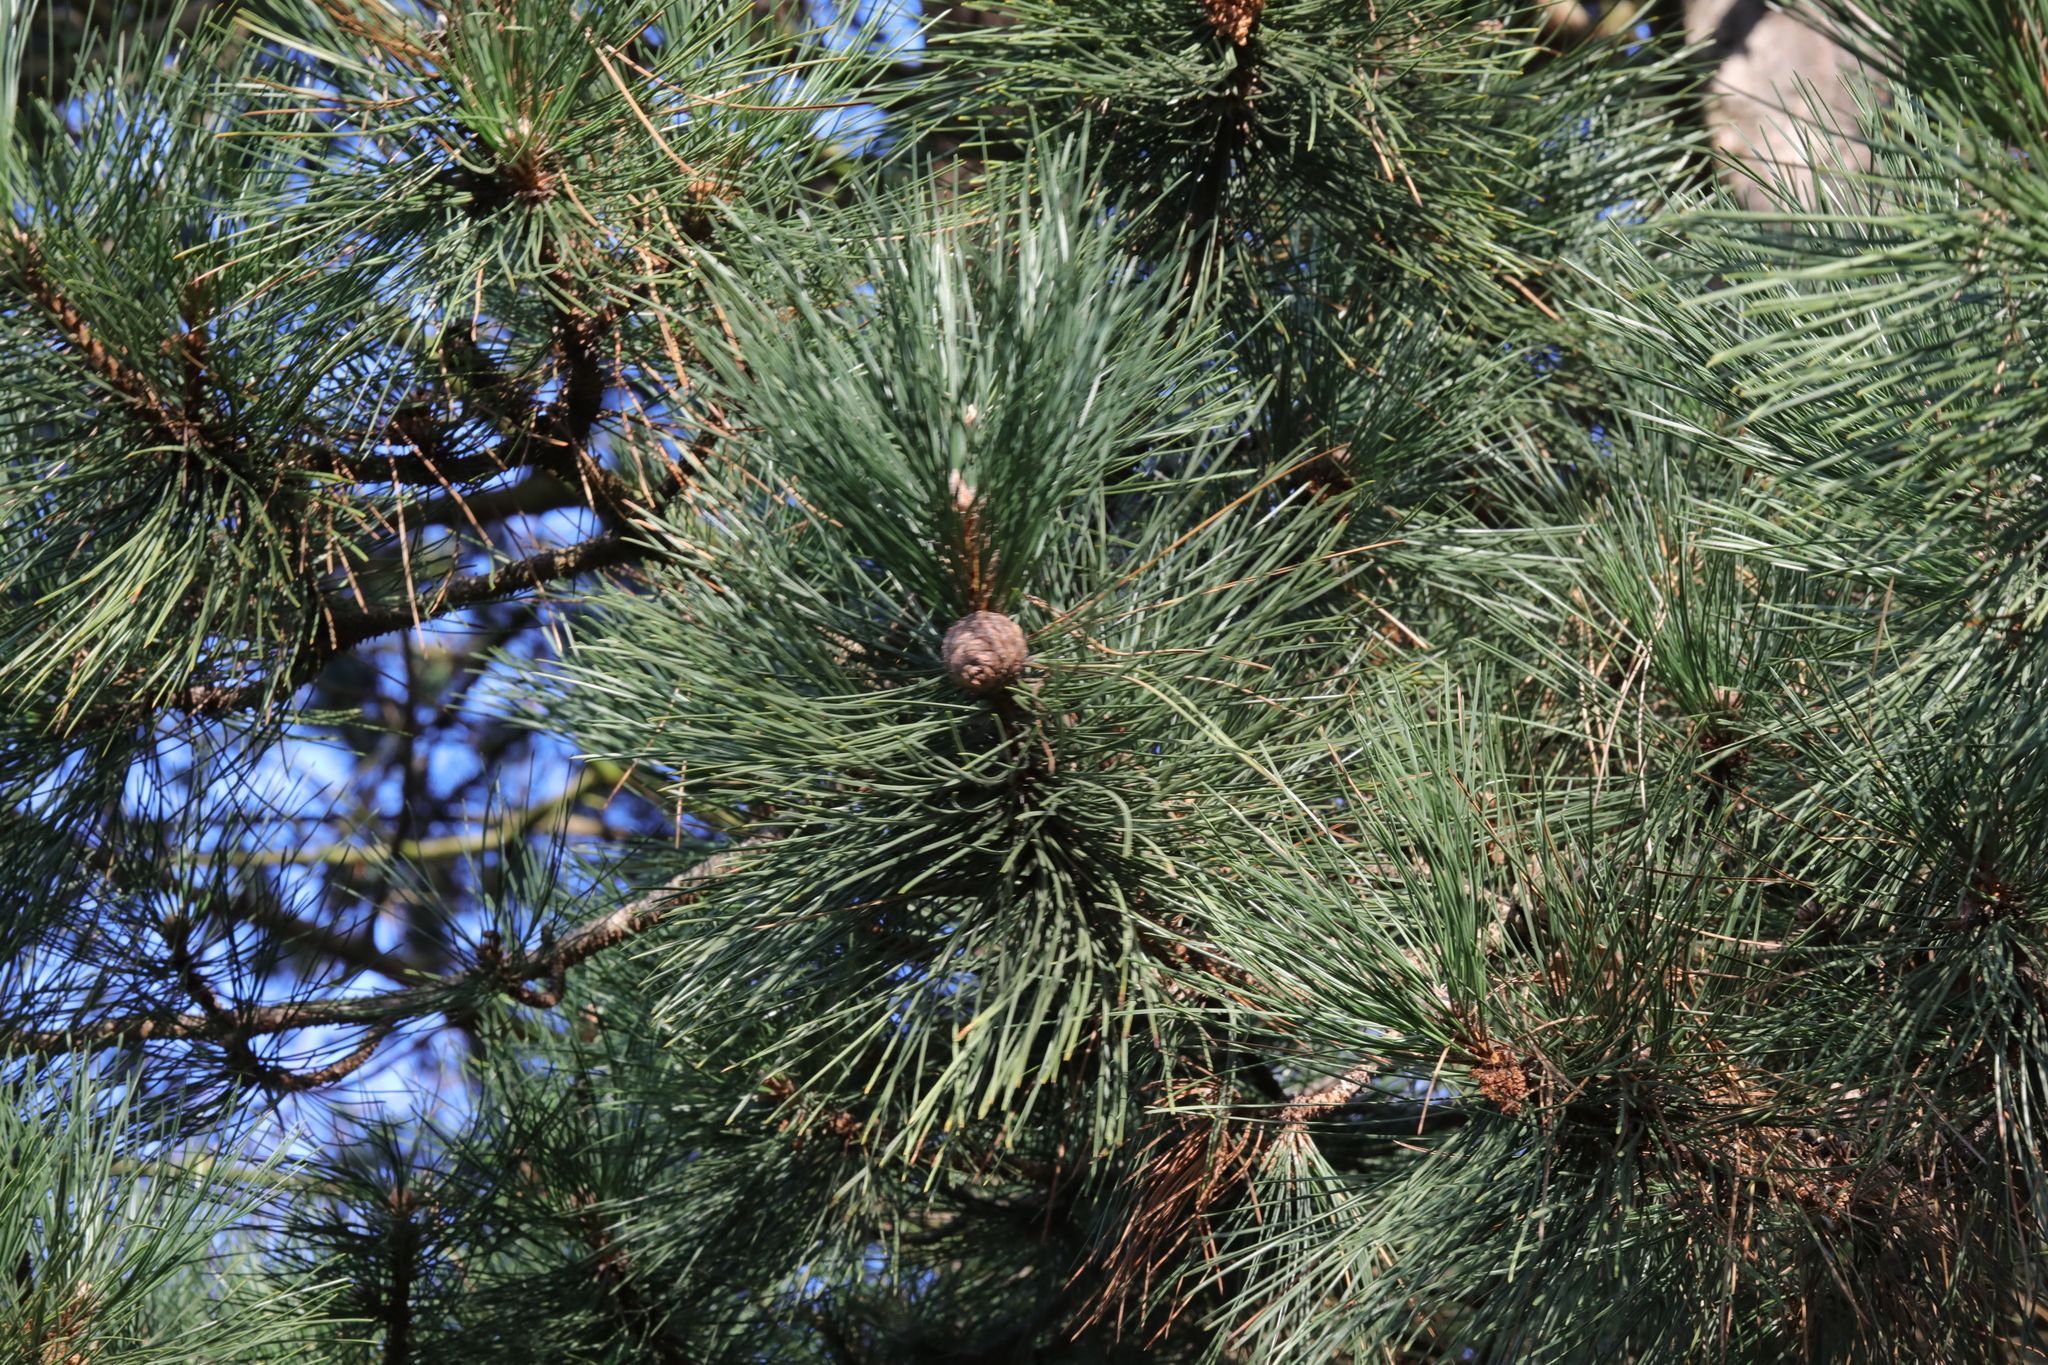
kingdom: Plantae
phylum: Tracheophyta
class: Pinopsida
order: Pinales
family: Pinaceae
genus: Pinus
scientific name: Pinus nigra
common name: Austrian pine
